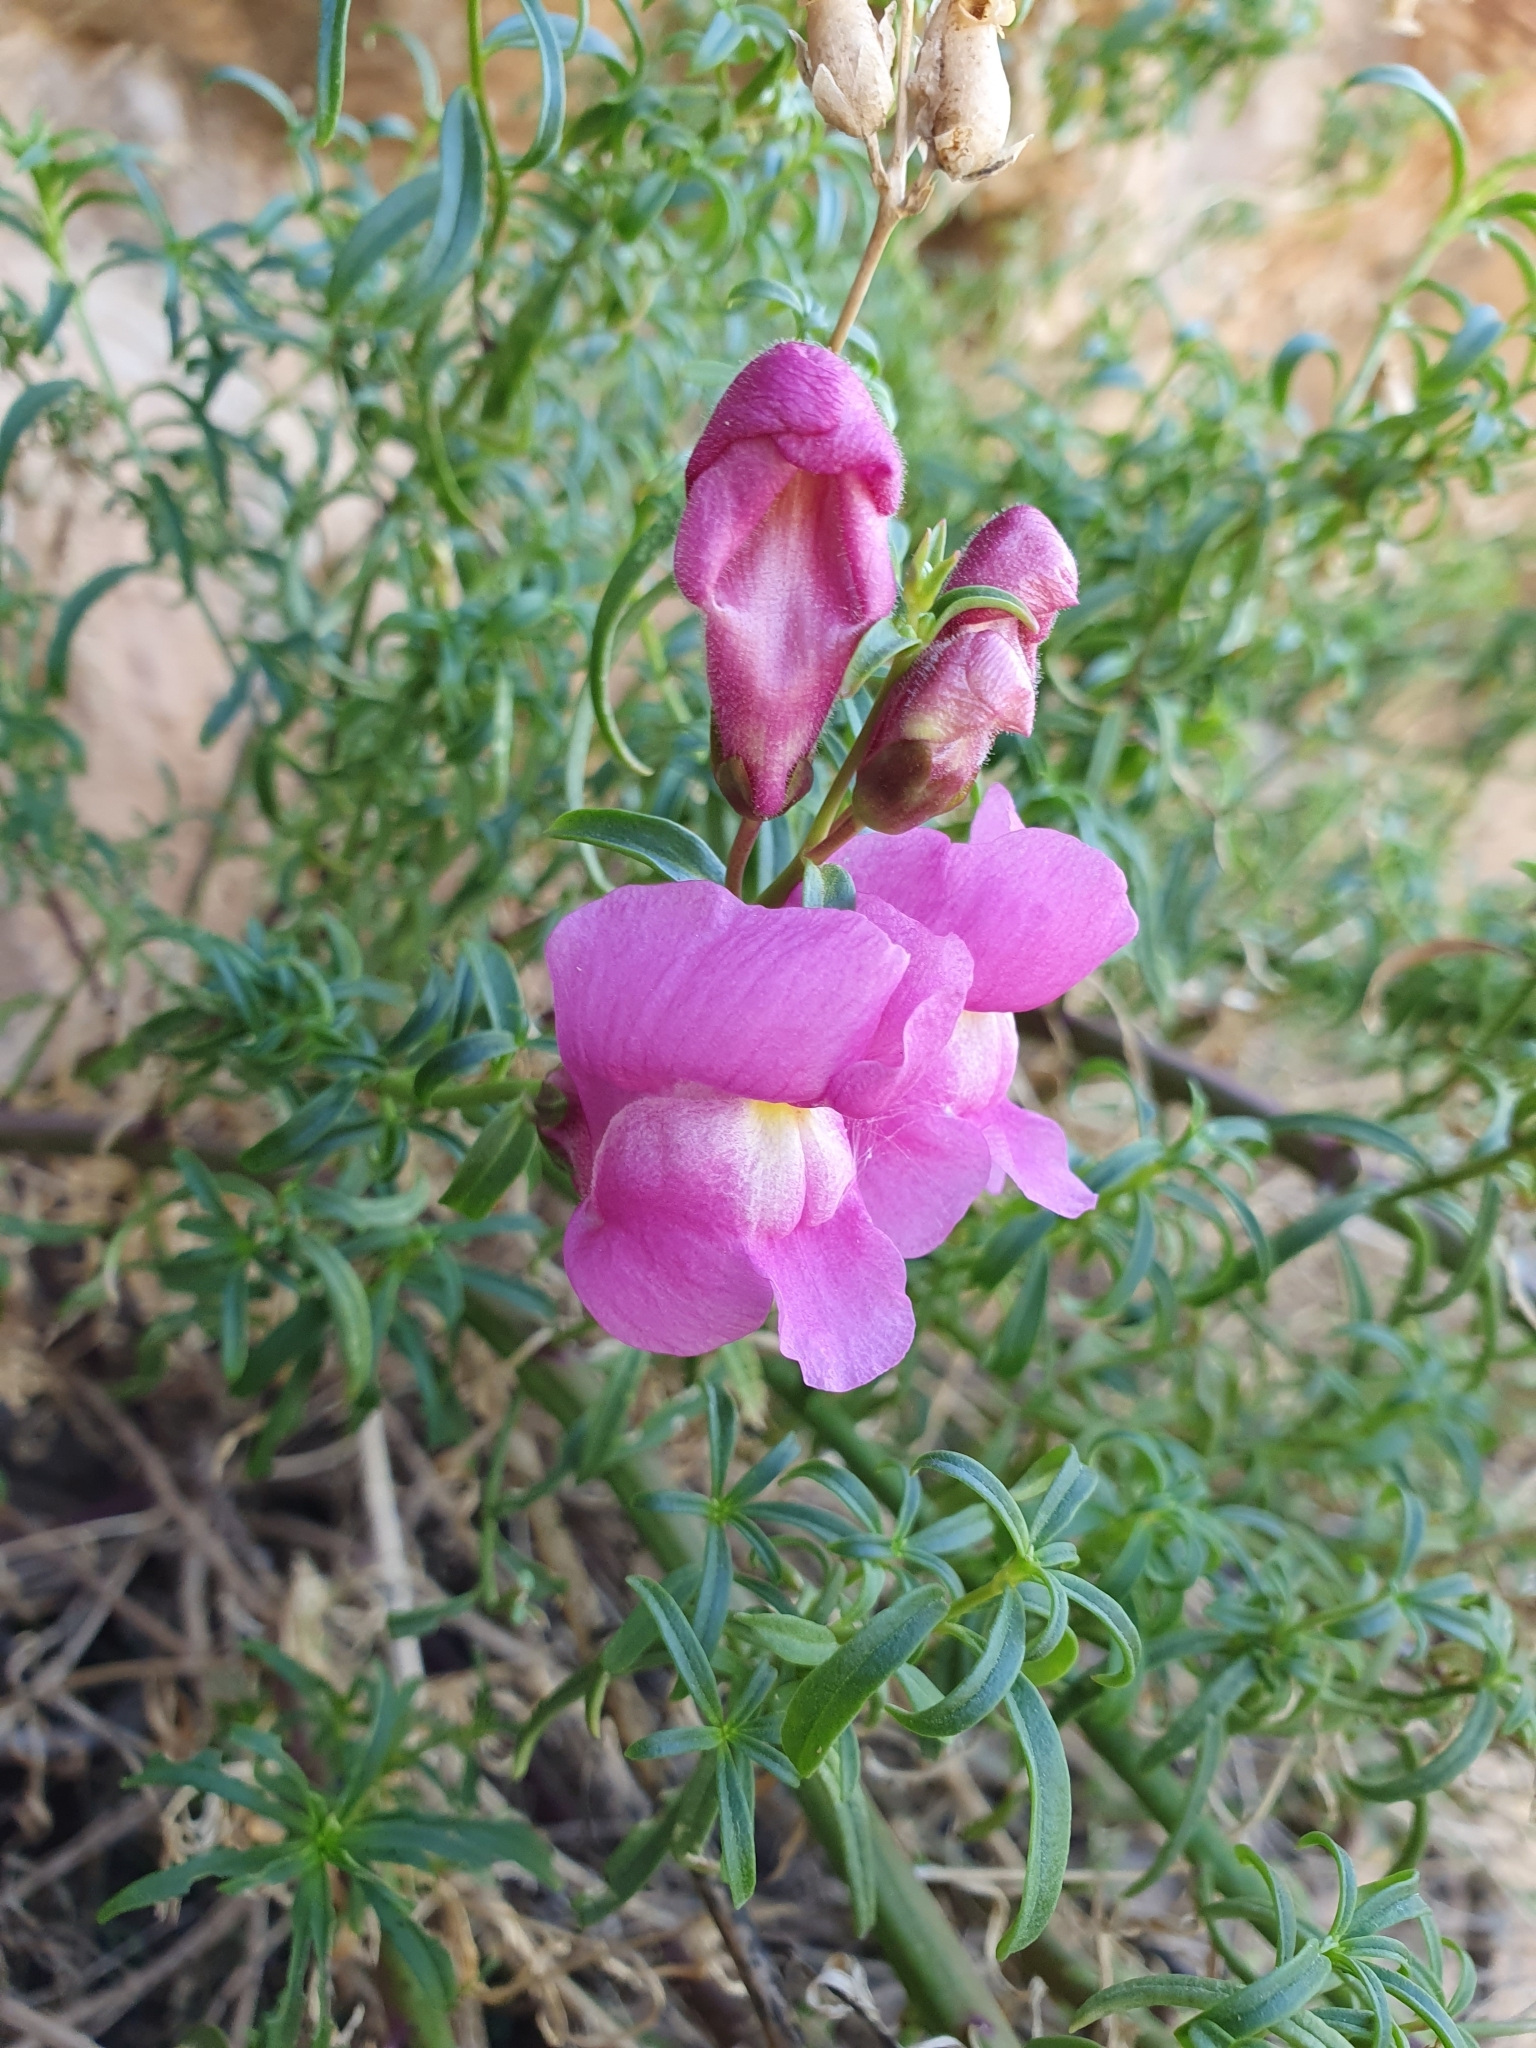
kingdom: Plantae
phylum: Tracheophyta
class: Magnoliopsida
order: Lamiales
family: Plantaginaceae
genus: Antirrhinum
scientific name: Antirrhinum tortuosum
